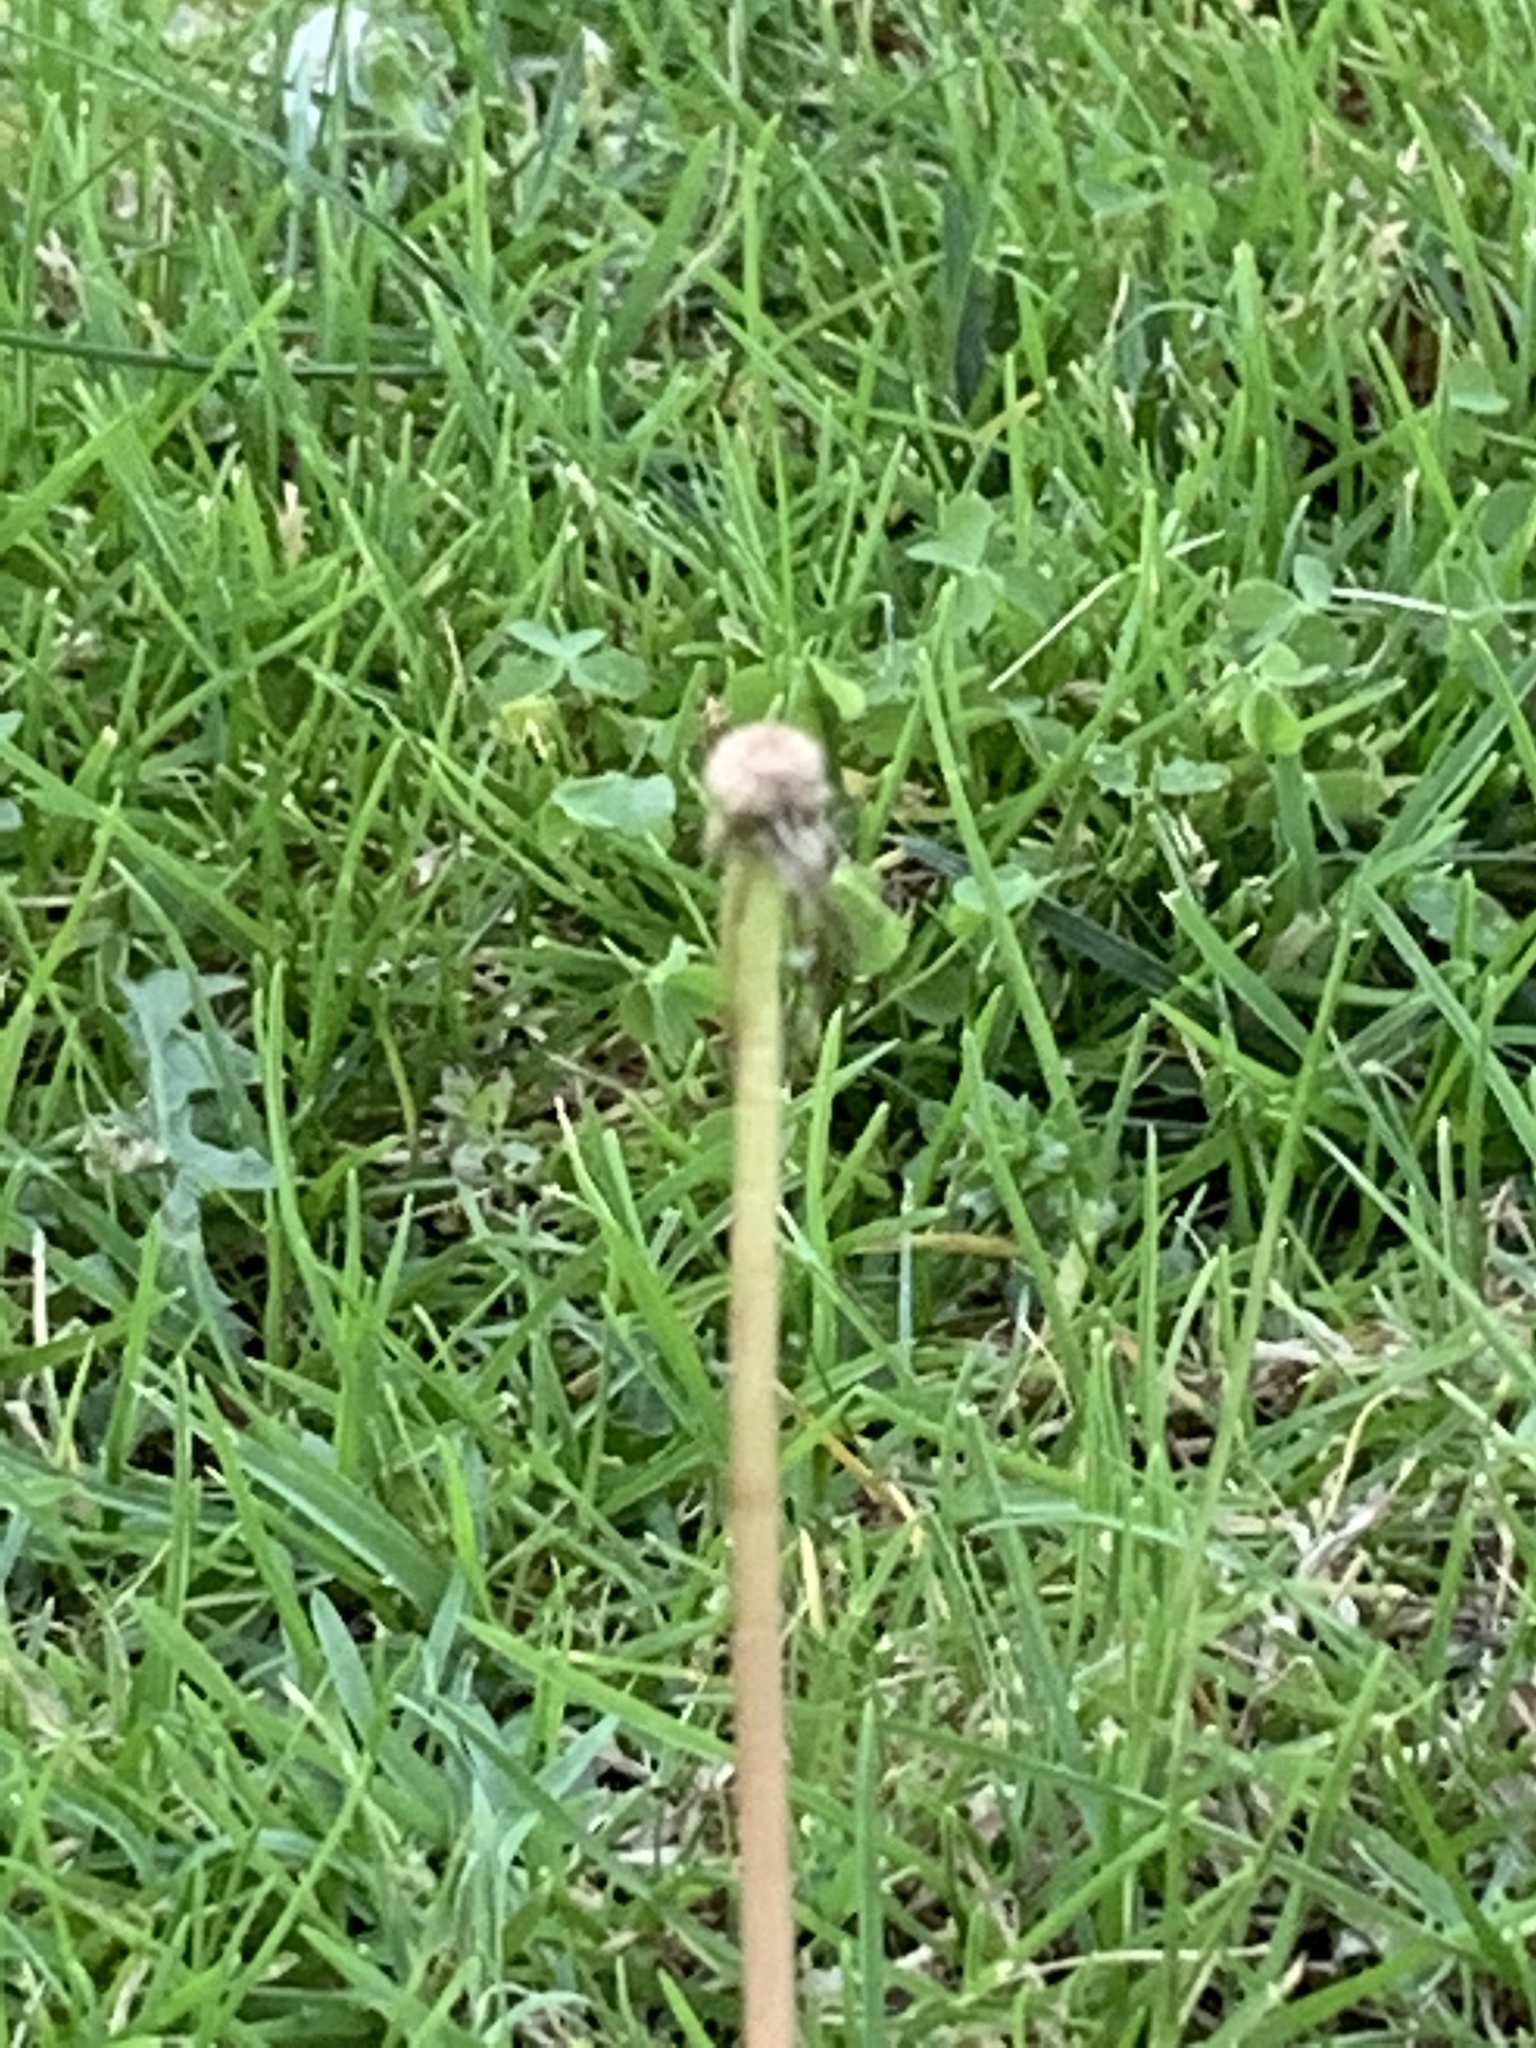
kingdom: Plantae
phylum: Tracheophyta
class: Magnoliopsida
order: Asterales
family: Asteraceae
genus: Taraxacum
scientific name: Taraxacum officinale
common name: Common dandelion
